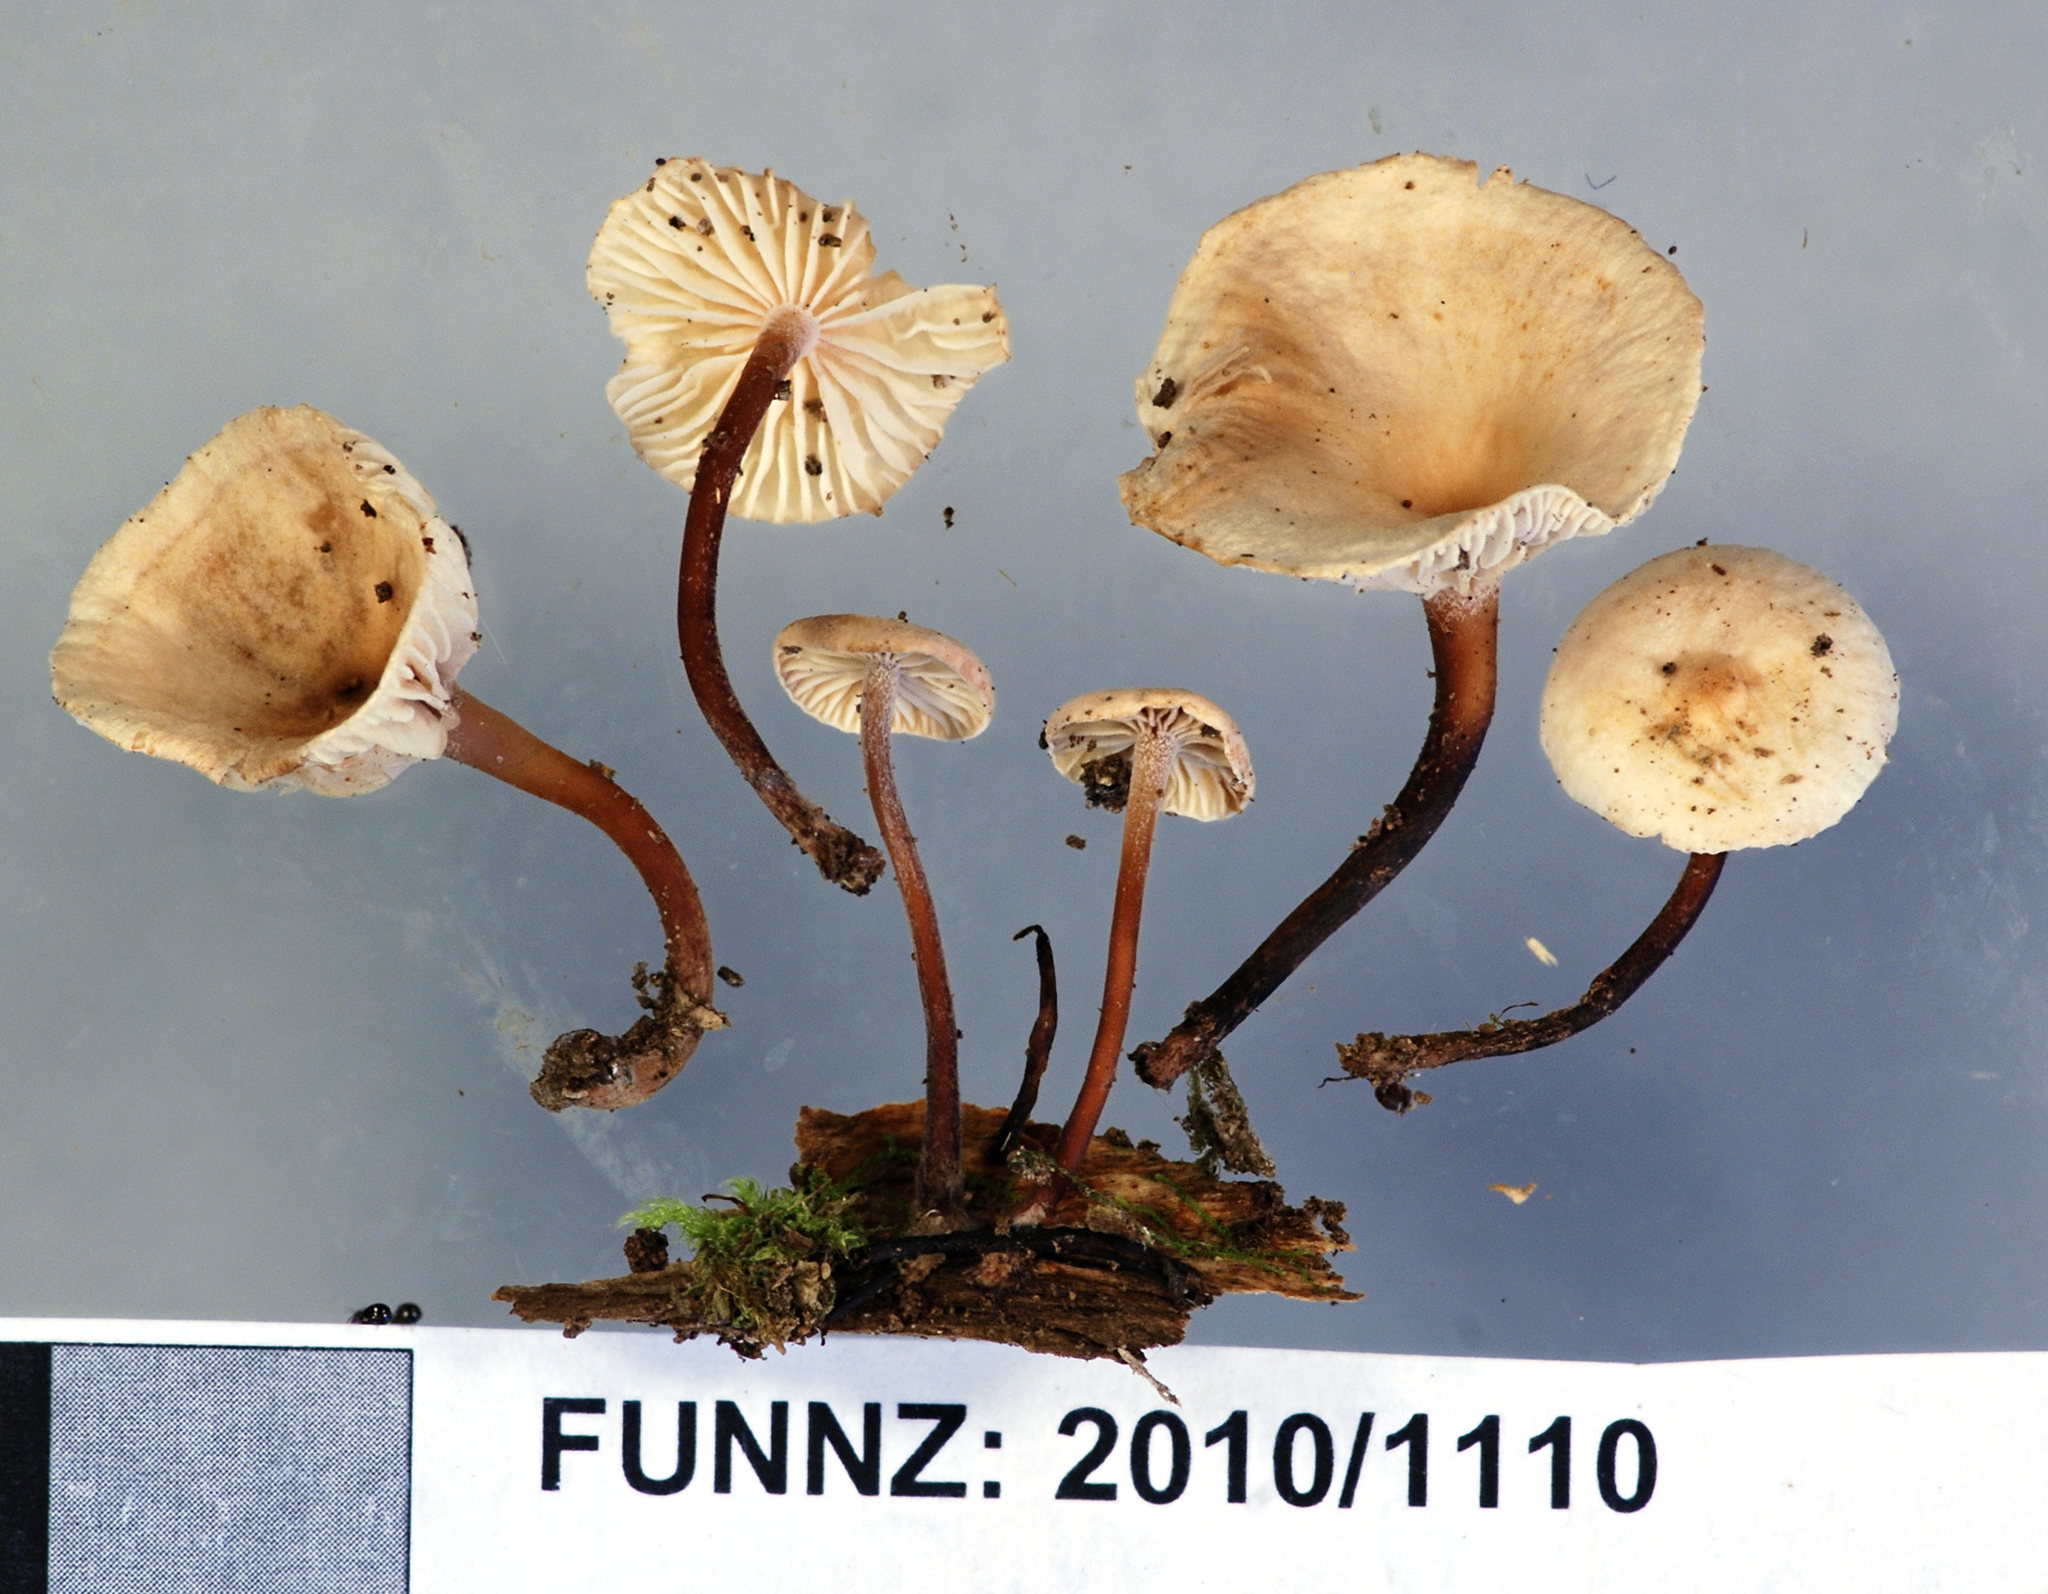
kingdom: Fungi
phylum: Basidiomycota
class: Agaricomycetes
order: Agaricales
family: Omphalotaceae
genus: Marasmiellus
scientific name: Marasmiellus omphaloides
